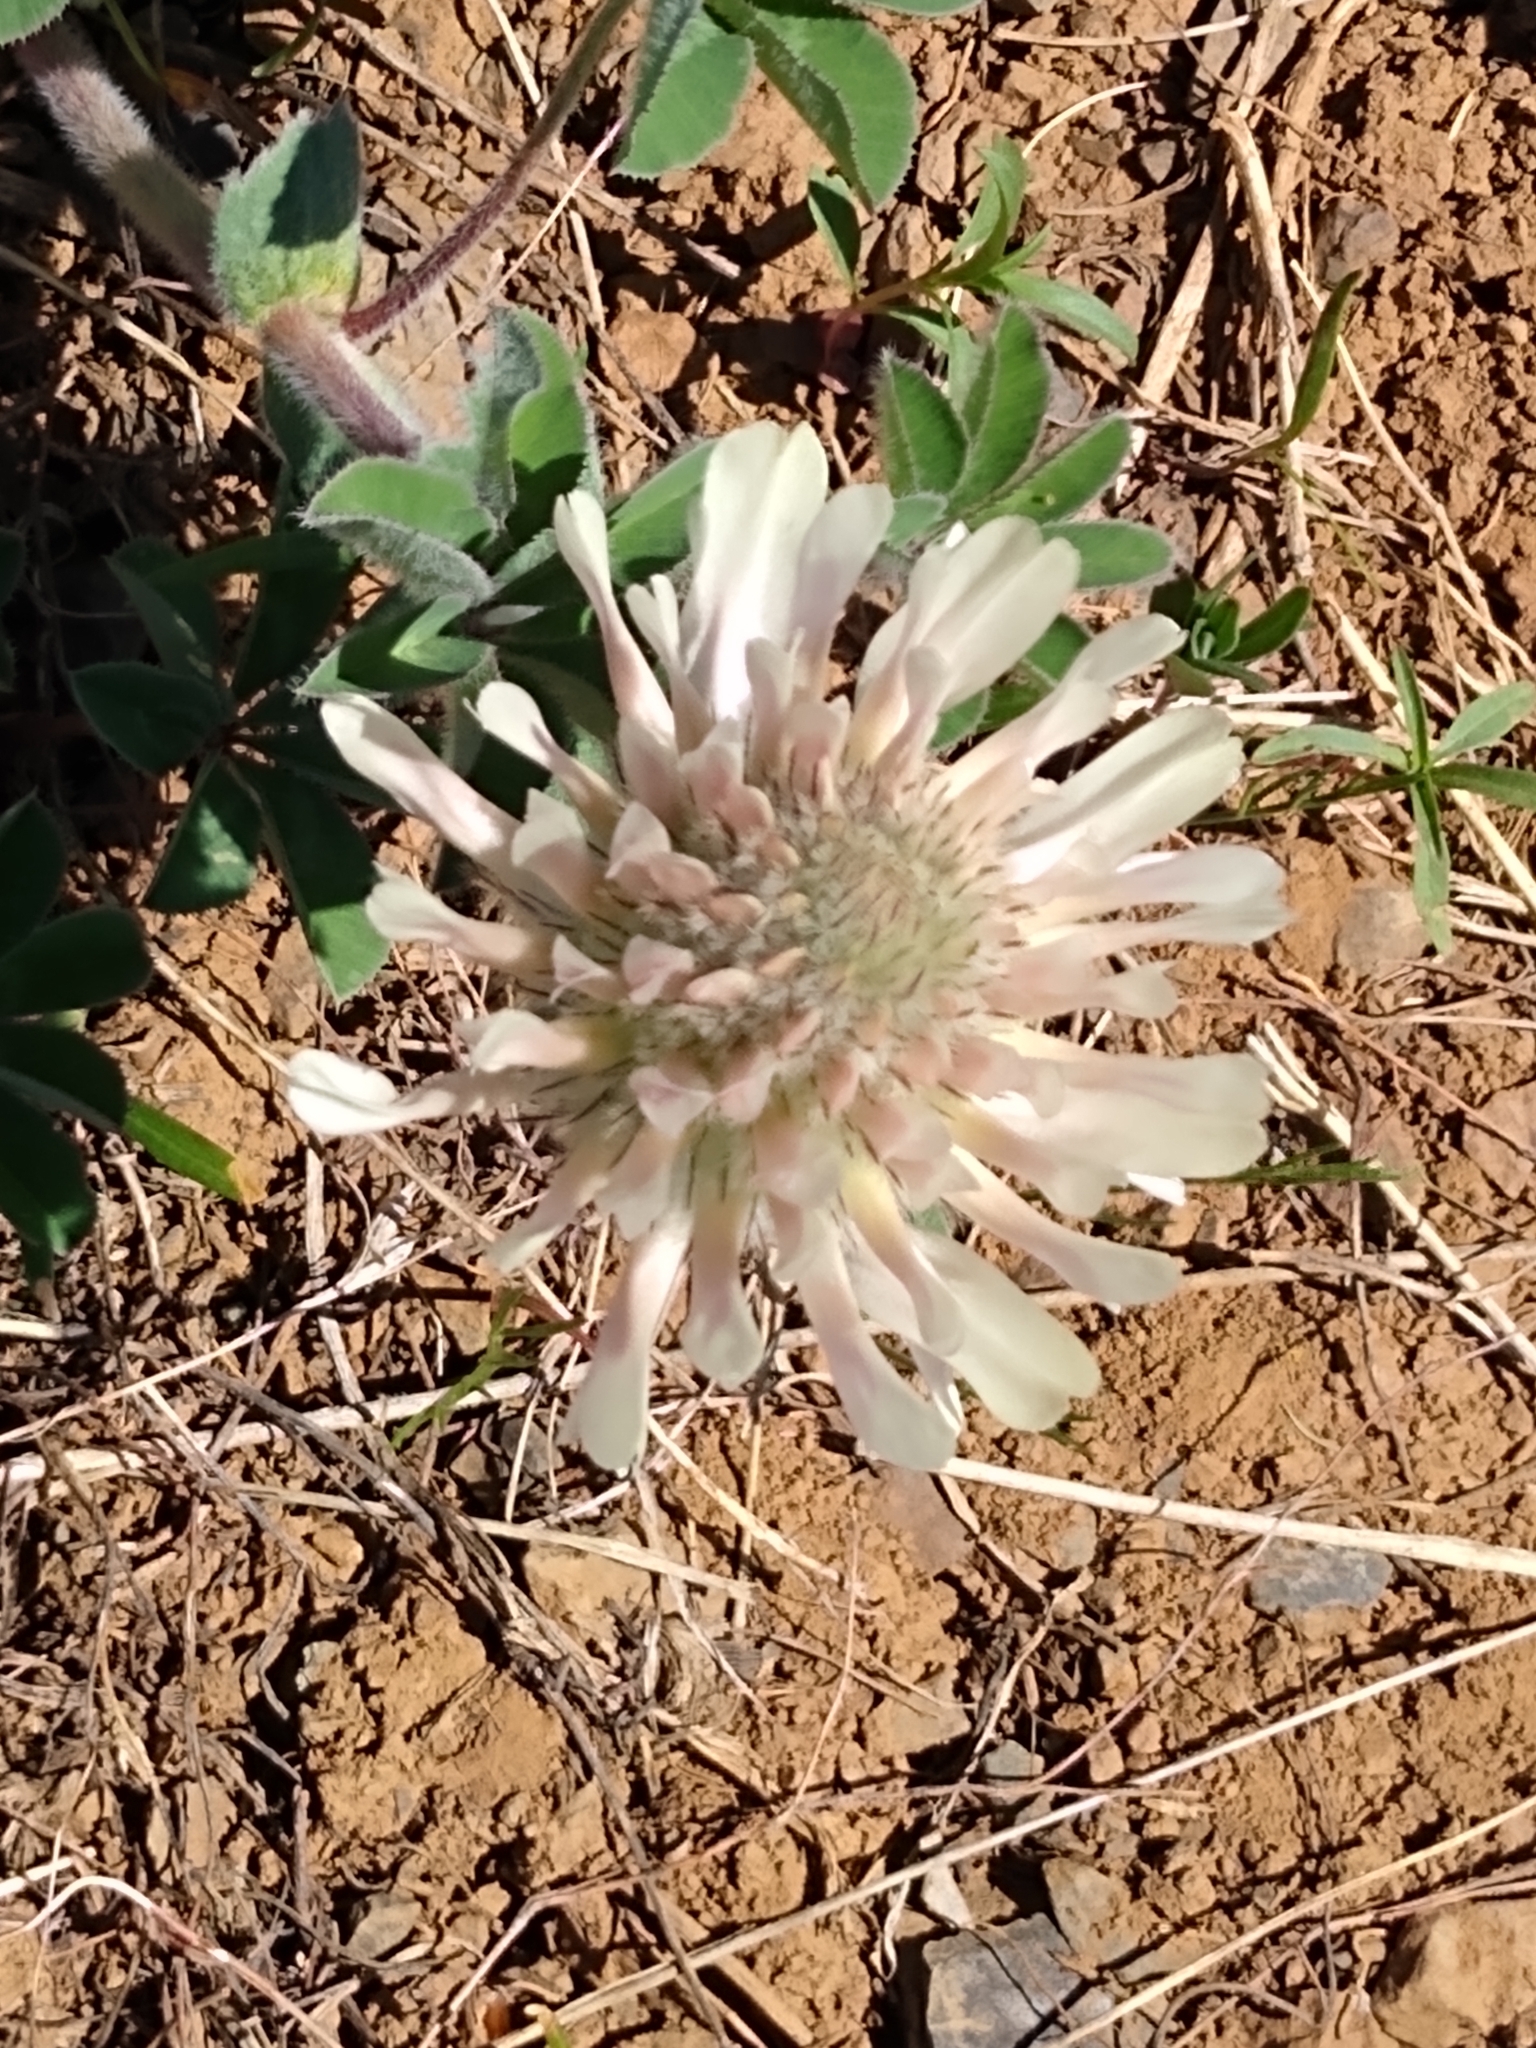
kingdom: Plantae
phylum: Tracheophyta
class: Magnoliopsida
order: Fabales
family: Fabaceae
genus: Trifolium
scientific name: Trifolium arvense
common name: Hare's-foot clover
